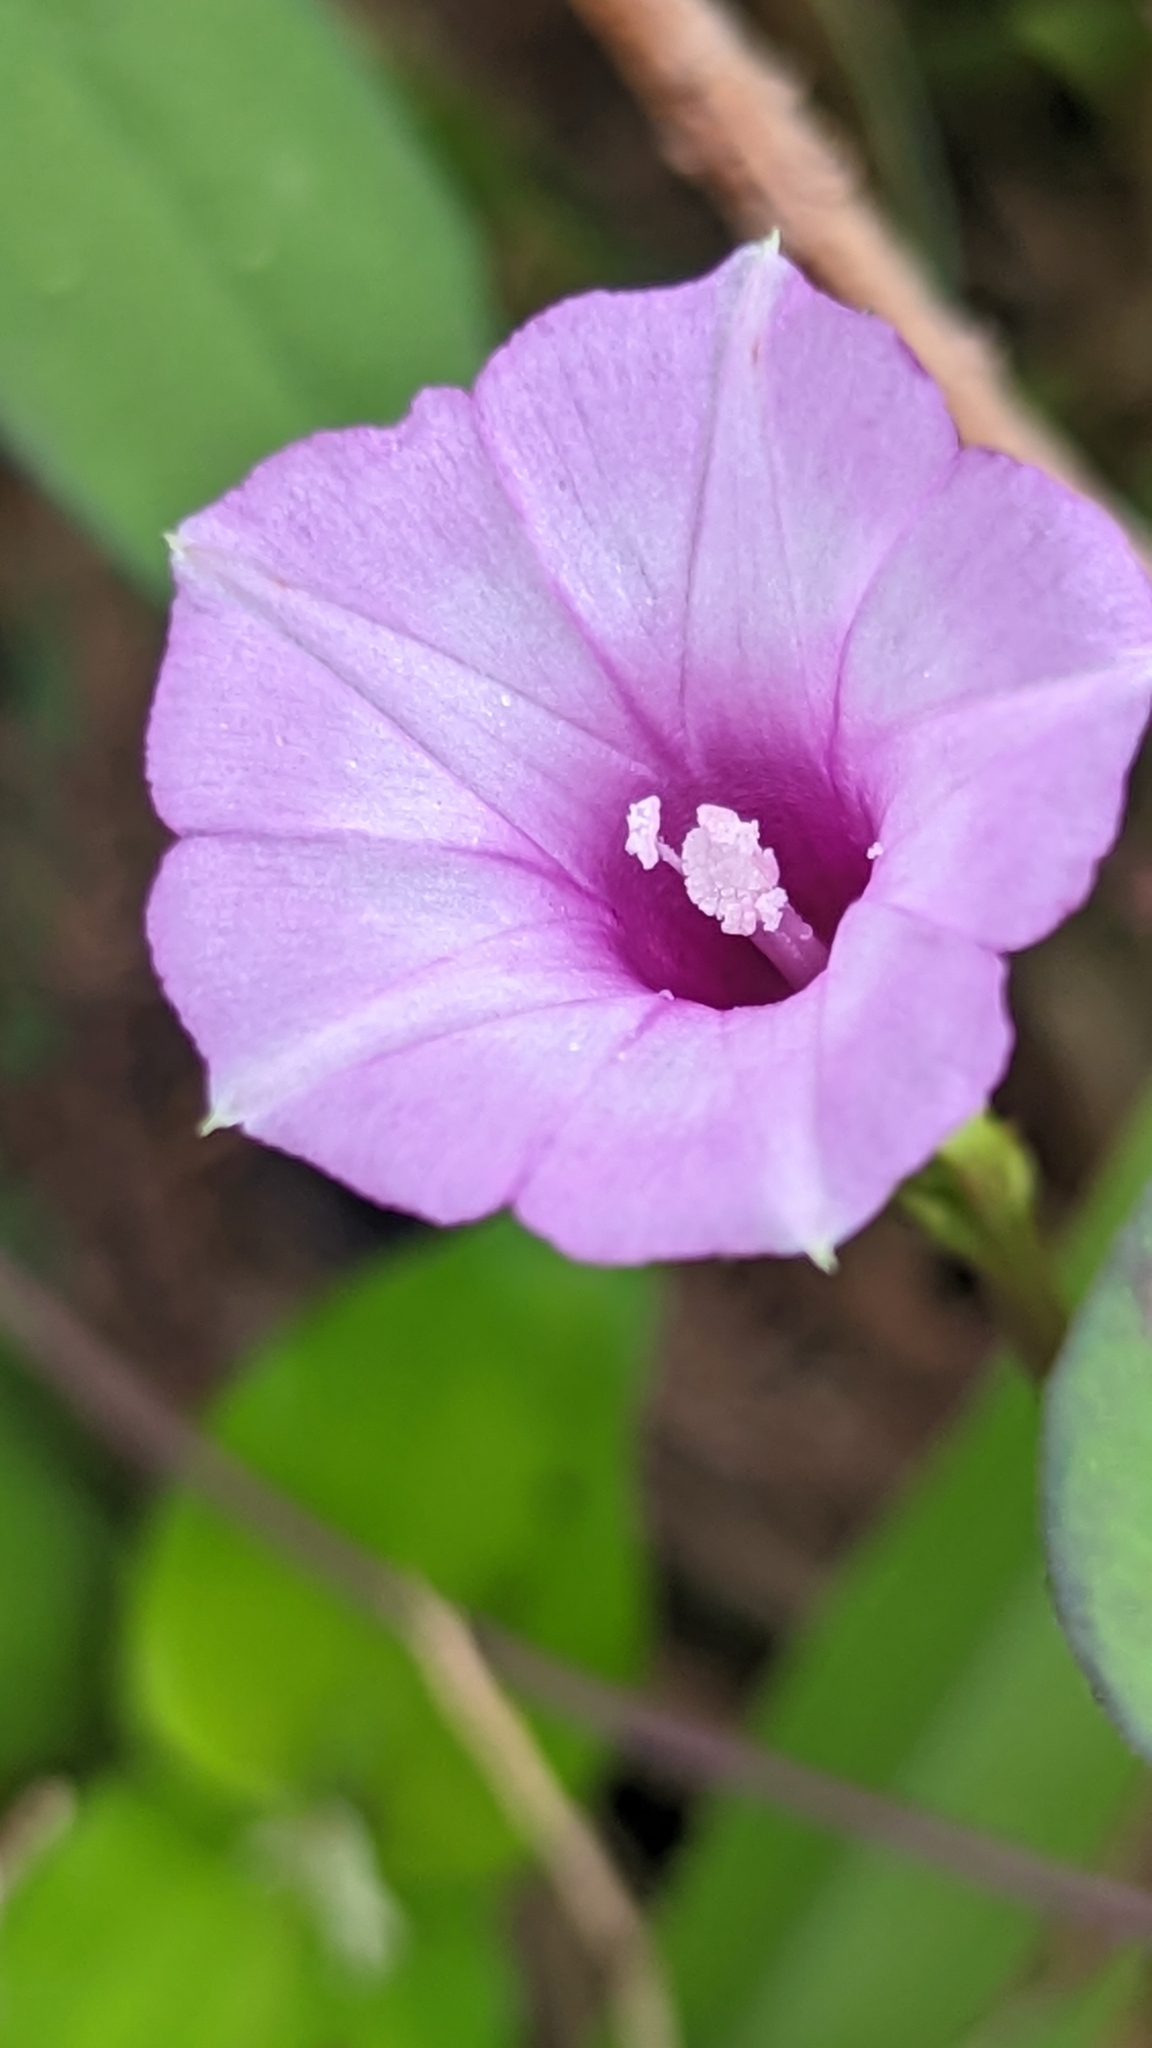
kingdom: Plantae
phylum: Tracheophyta
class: Magnoliopsida
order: Solanales
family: Convolvulaceae
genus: Ipomoea
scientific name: Ipomoea triloba
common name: Little-bell
